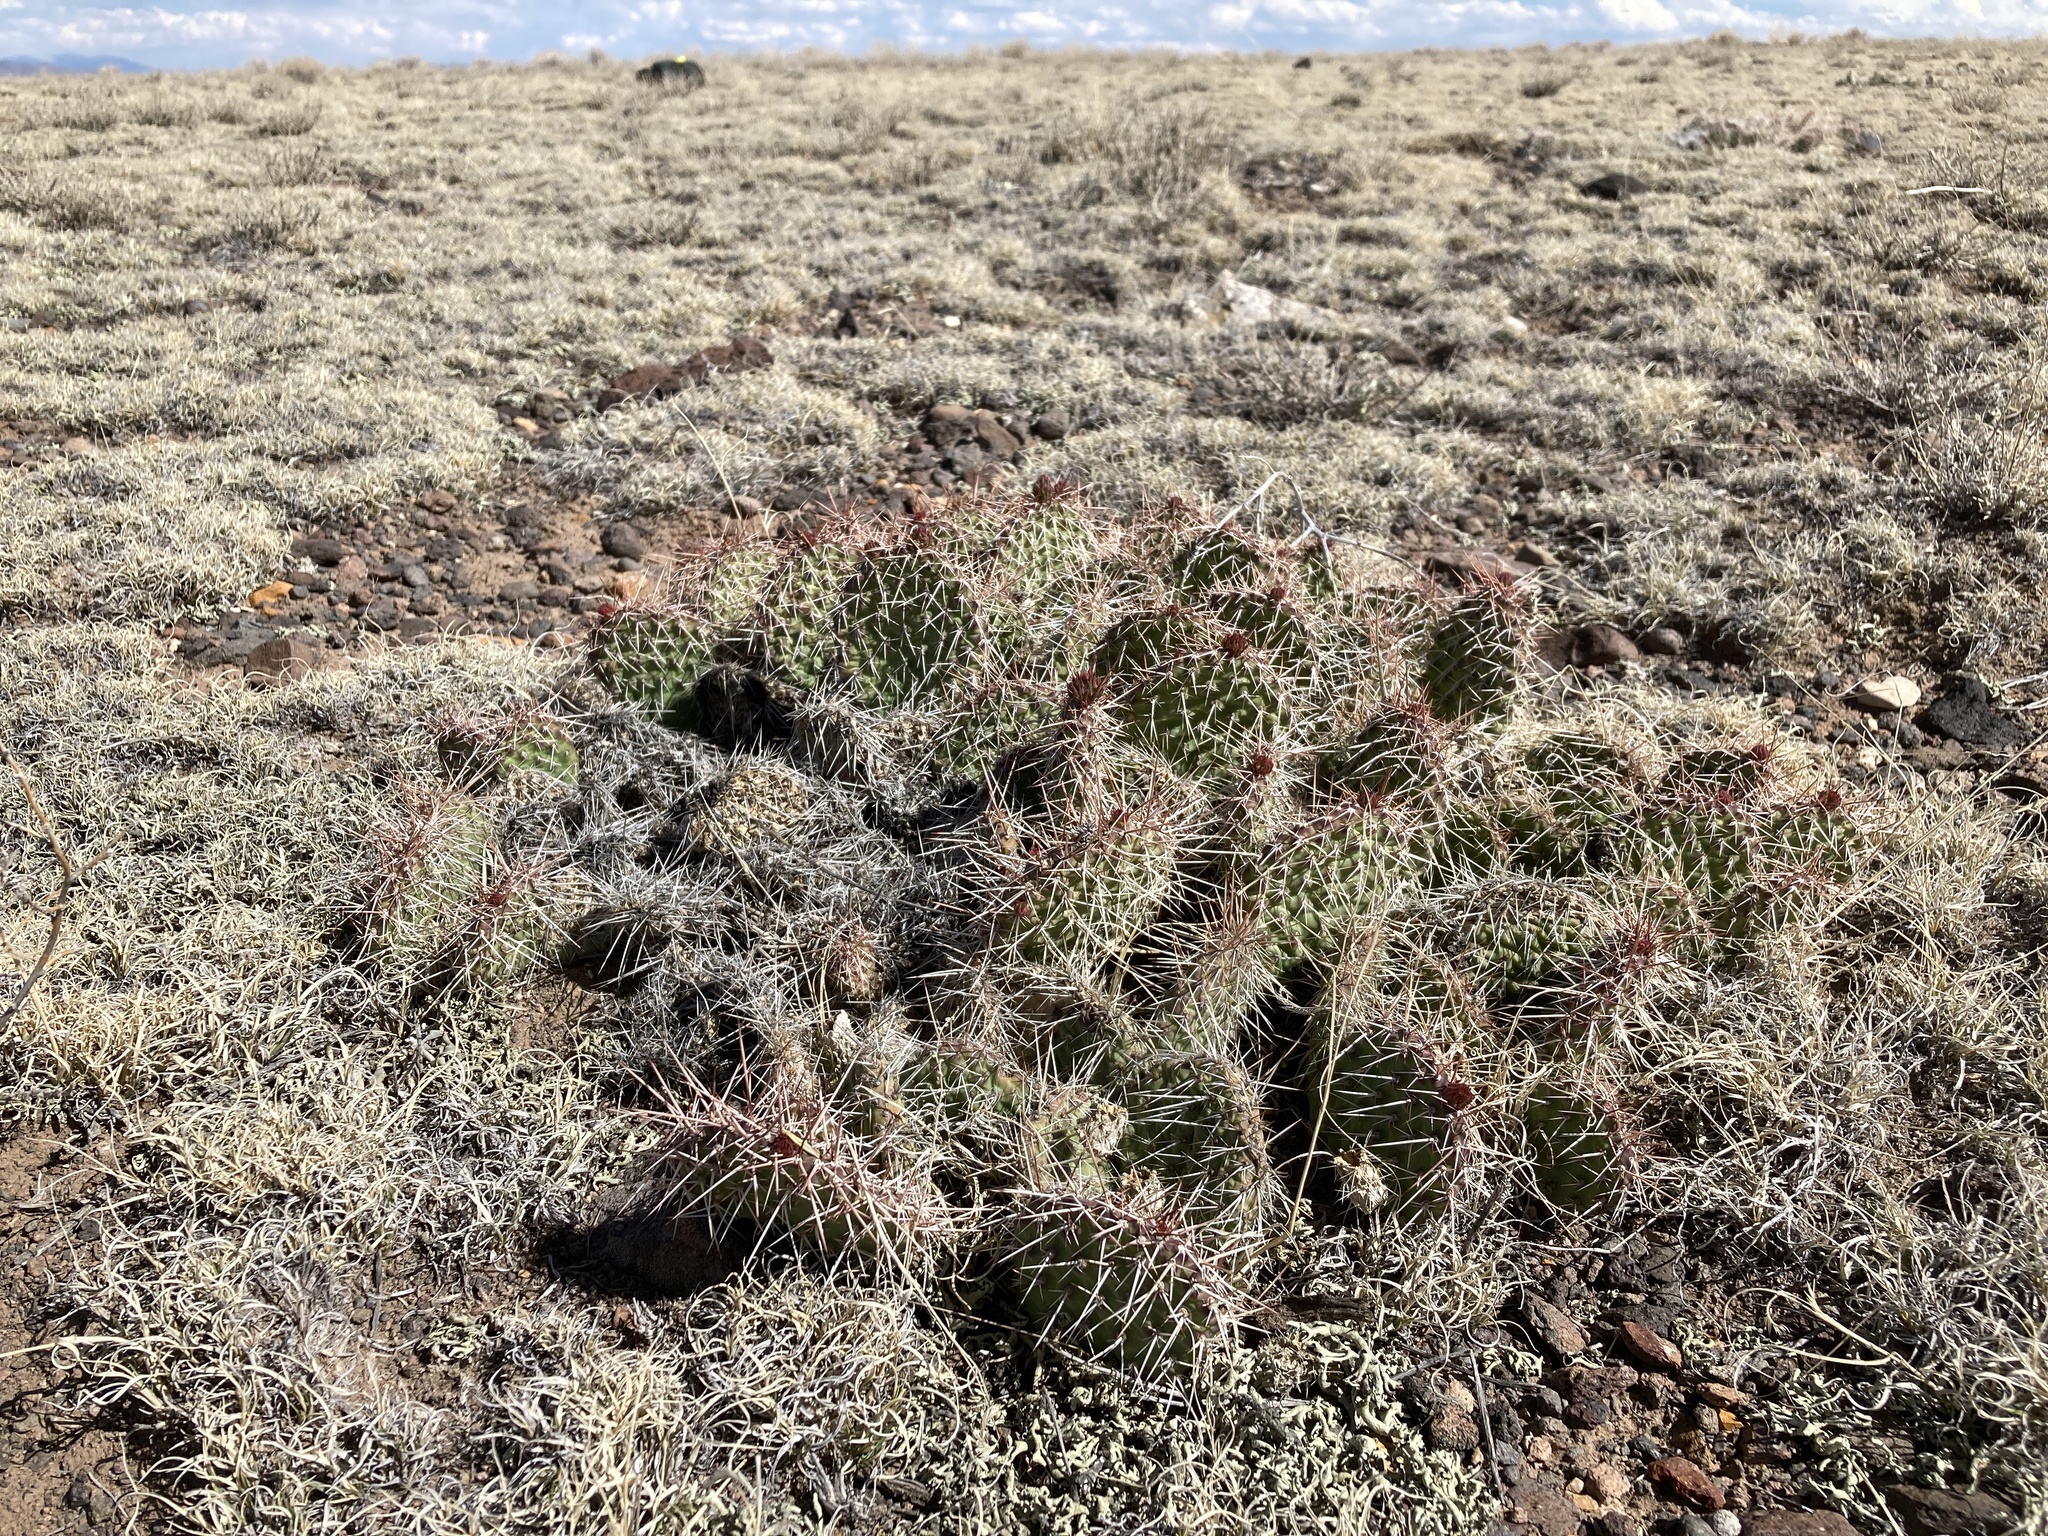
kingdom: Plantae
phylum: Tracheophyta
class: Magnoliopsida
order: Caryophyllales
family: Cactaceae
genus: Opuntia
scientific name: Opuntia polyacantha
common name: Plains prickly-pear
